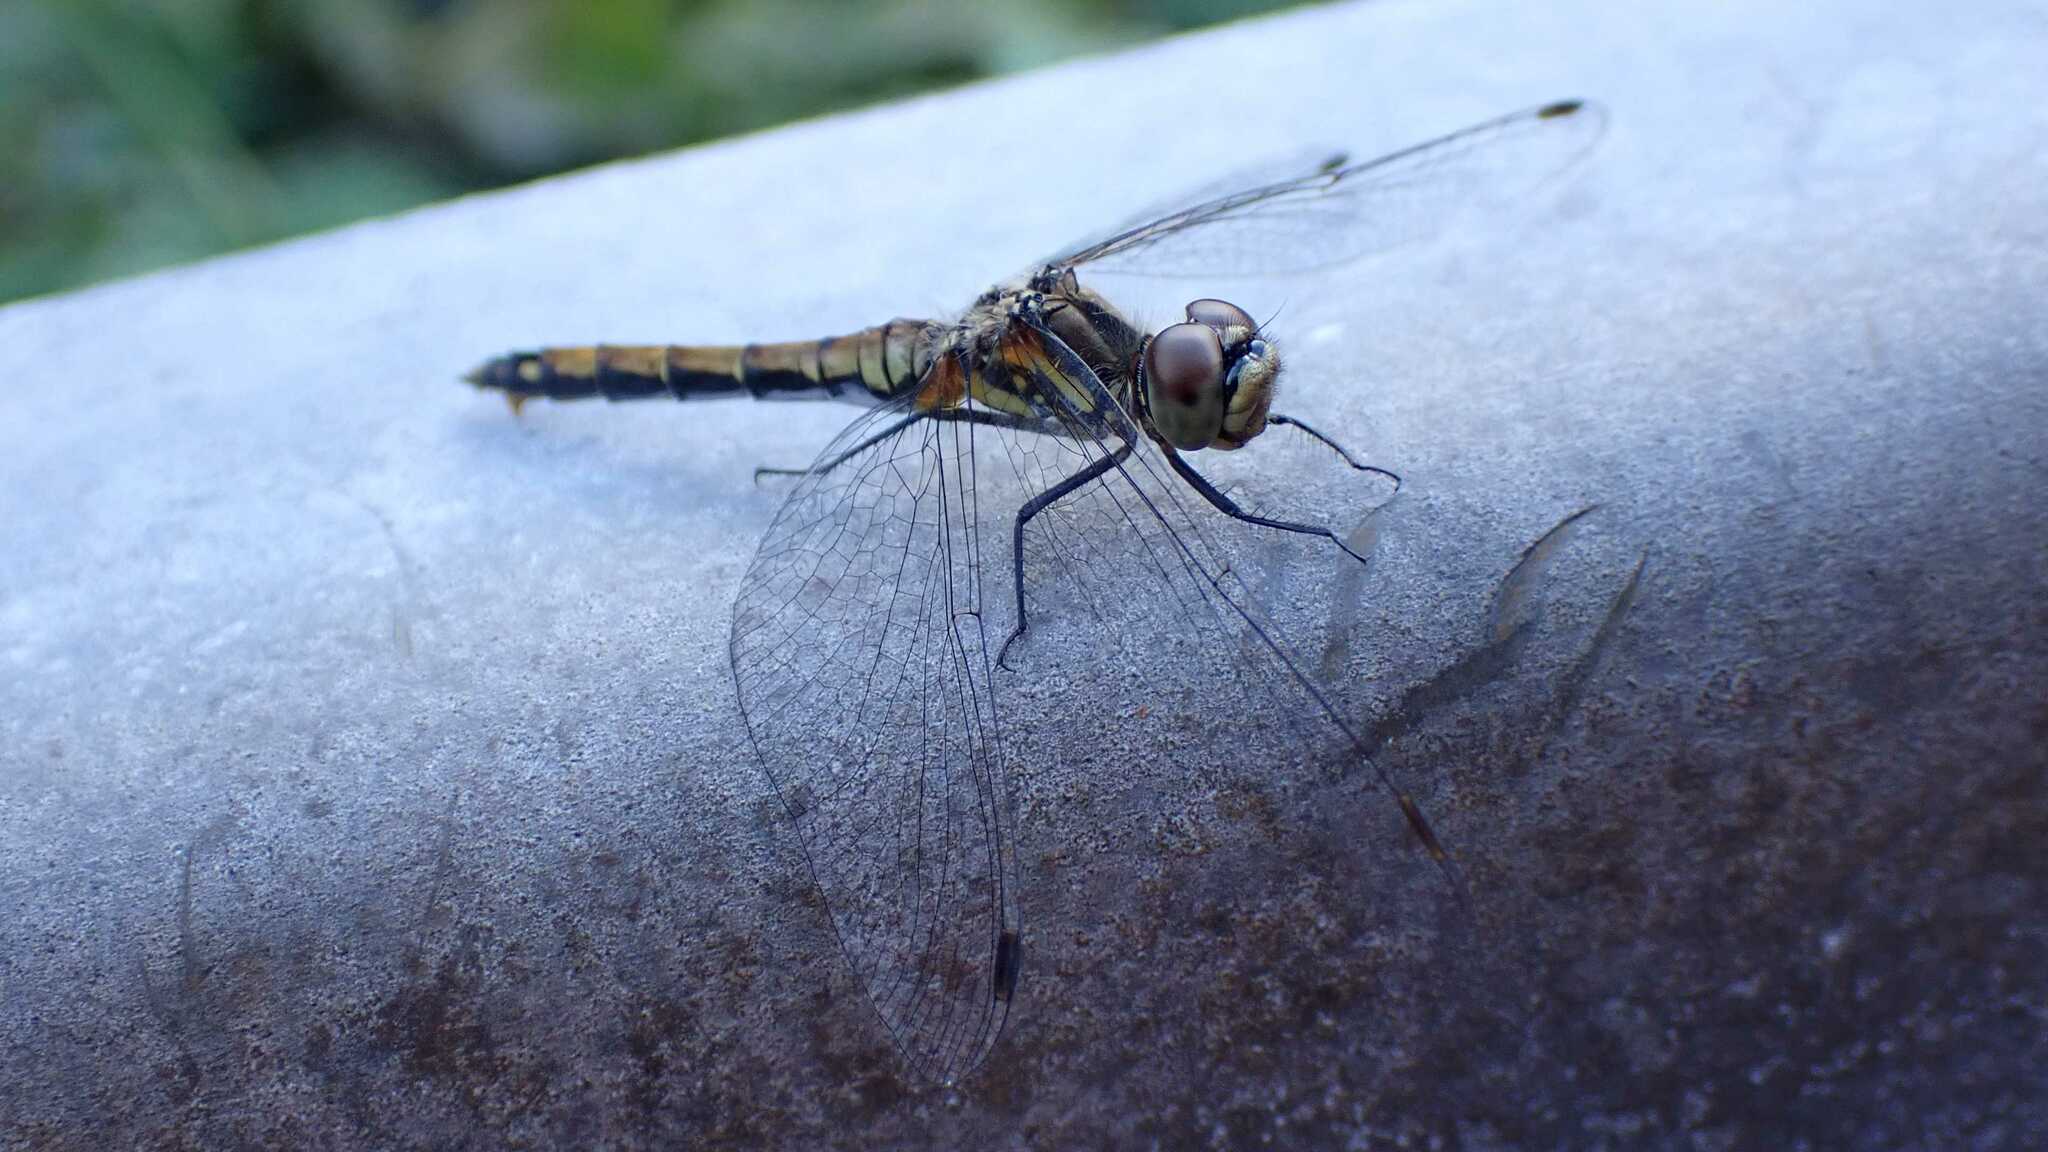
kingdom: Animalia
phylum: Arthropoda
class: Insecta
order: Odonata
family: Libellulidae
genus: Sympetrum
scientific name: Sympetrum danae
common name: Black darter
